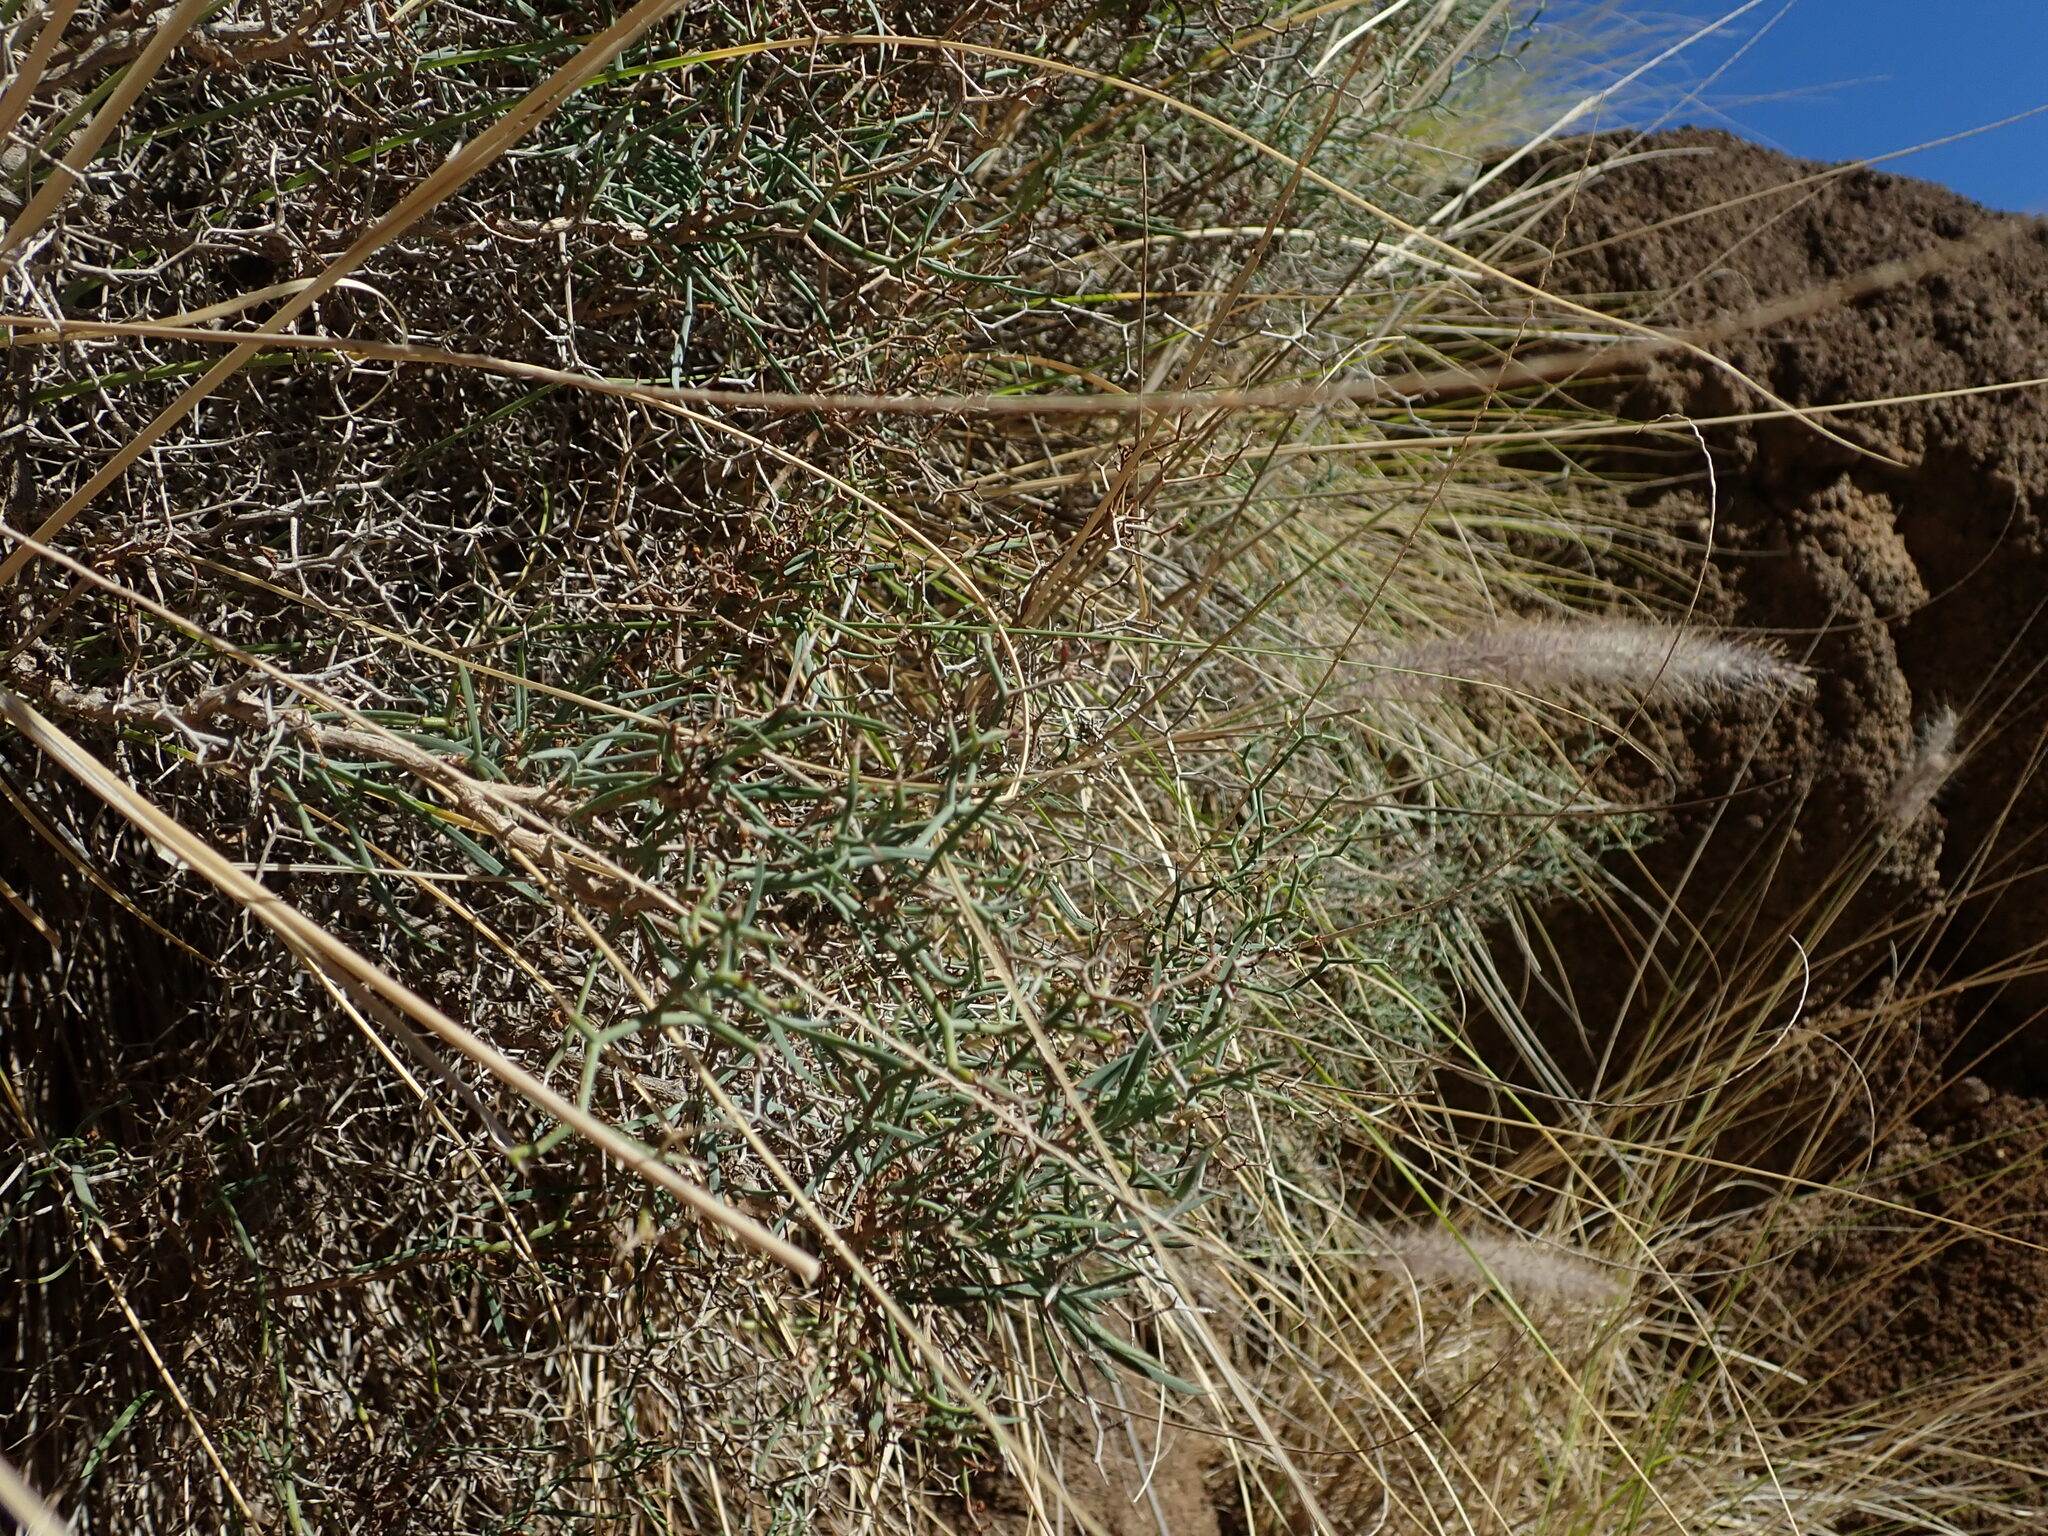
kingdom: Plantae
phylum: Tracheophyta
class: Magnoliopsida
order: Asterales
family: Asteraceae
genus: Launaea
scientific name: Launaea arborescens
